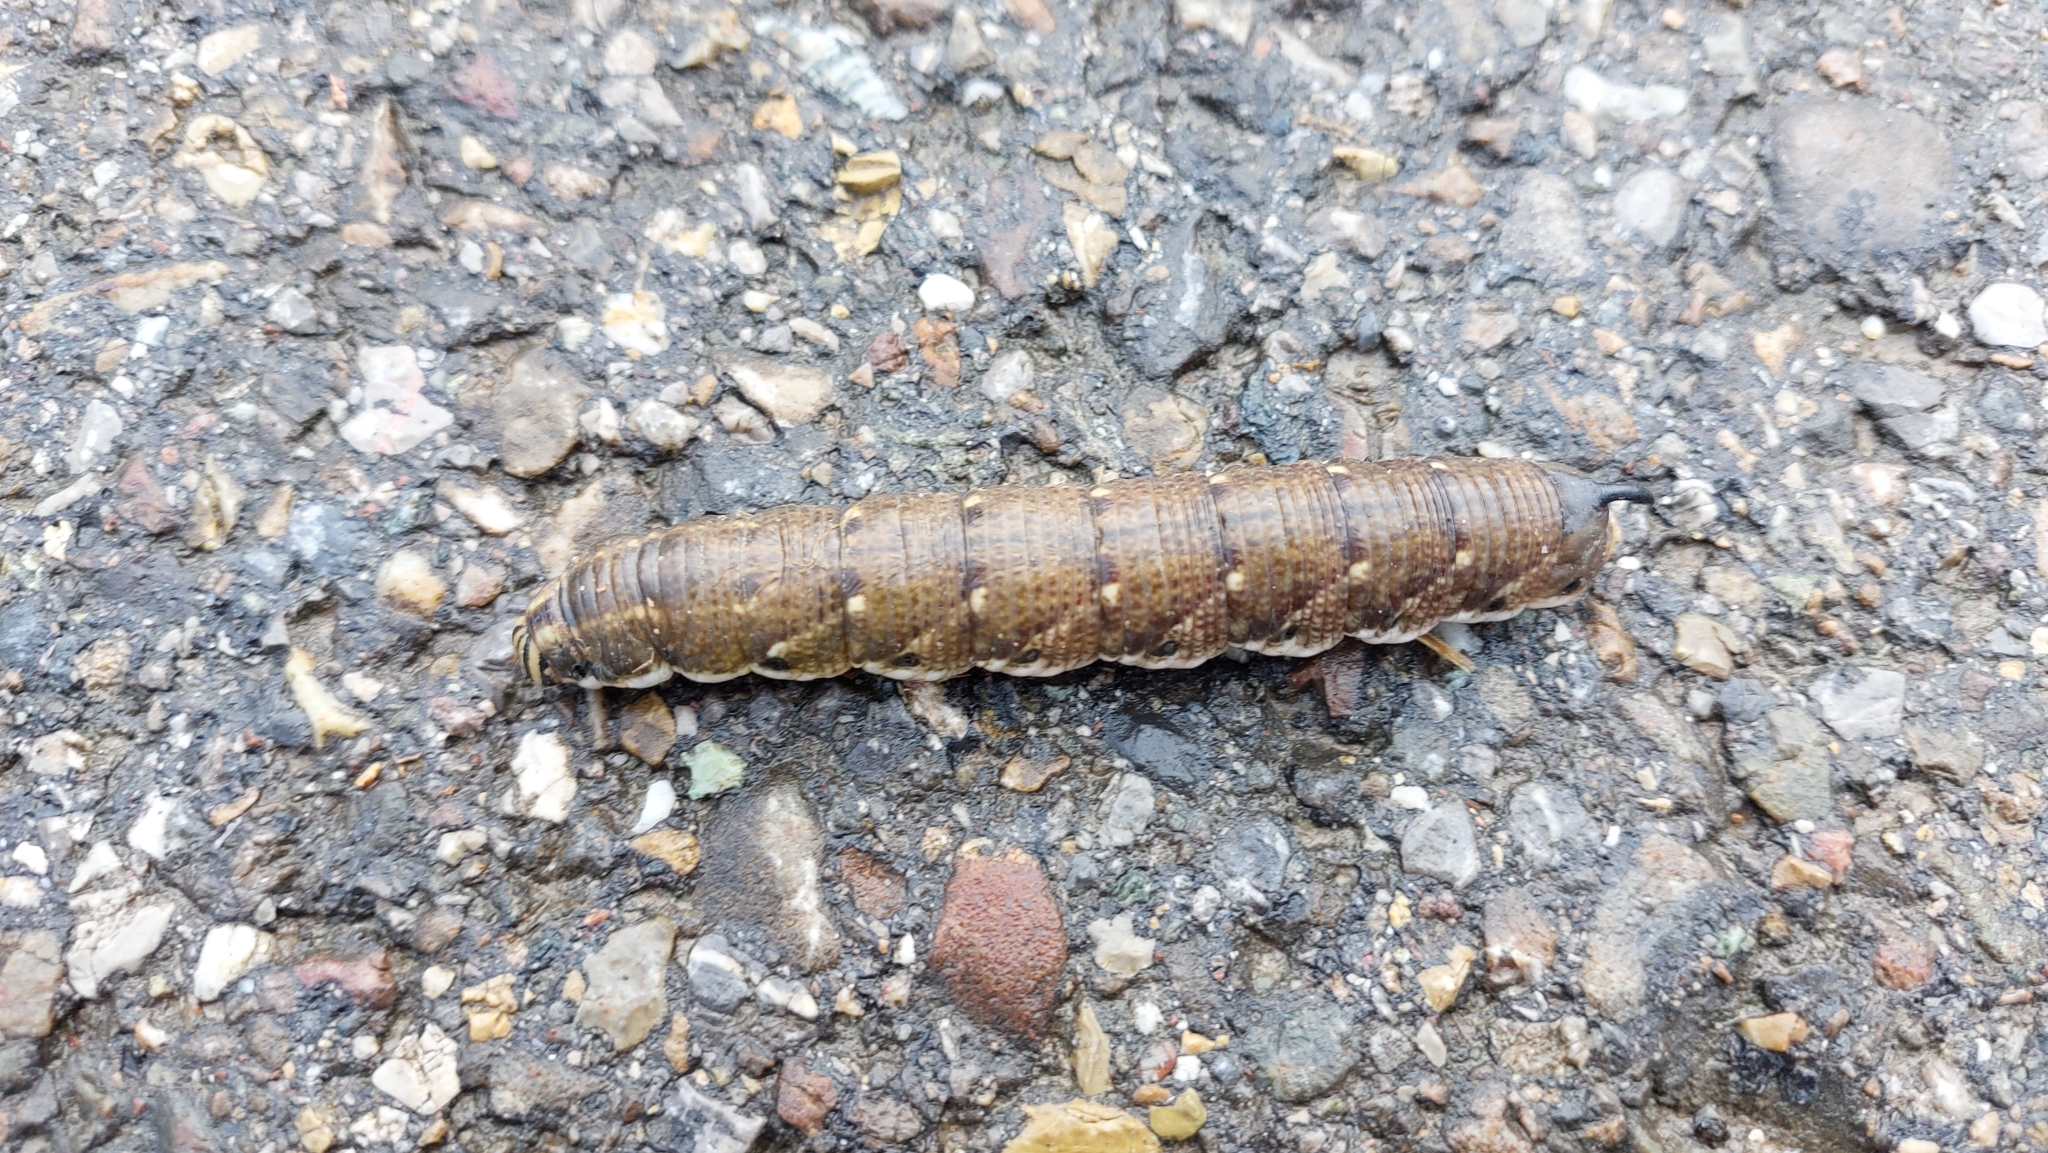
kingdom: Animalia
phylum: Arthropoda
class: Insecta
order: Lepidoptera
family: Sphingidae
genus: Agrius
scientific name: Agrius convolvuli
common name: Convolvulus hawkmoth
